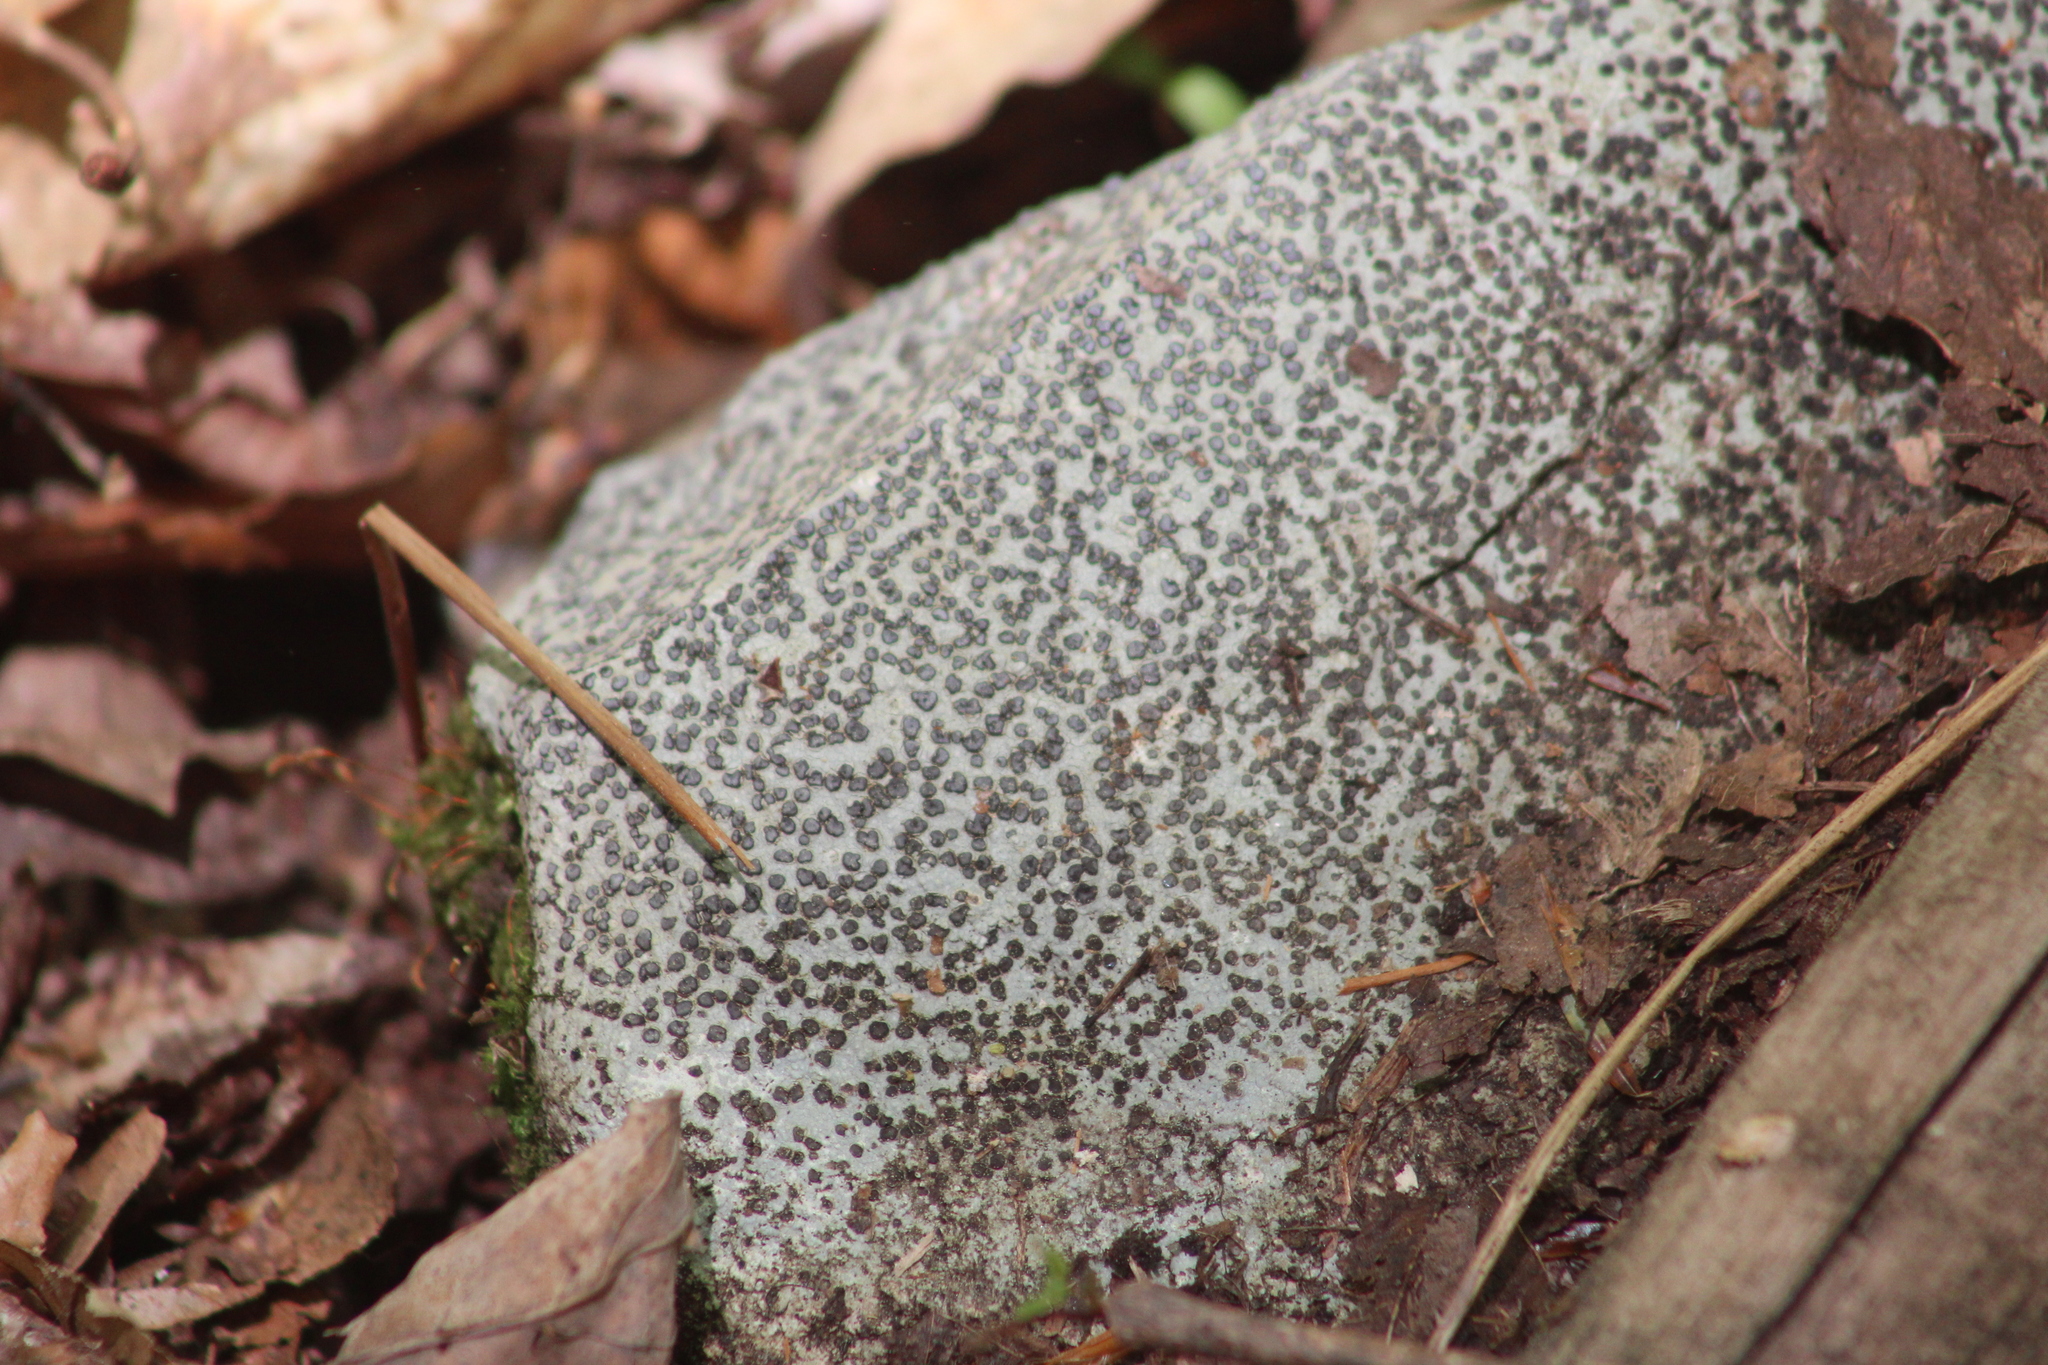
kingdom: Fungi
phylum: Ascomycota
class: Lecanoromycetes
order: Lecideales
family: Lecideaceae
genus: Porpidia
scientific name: Porpidia albocaerulescens
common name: Smokey-eyed boulder lichen
